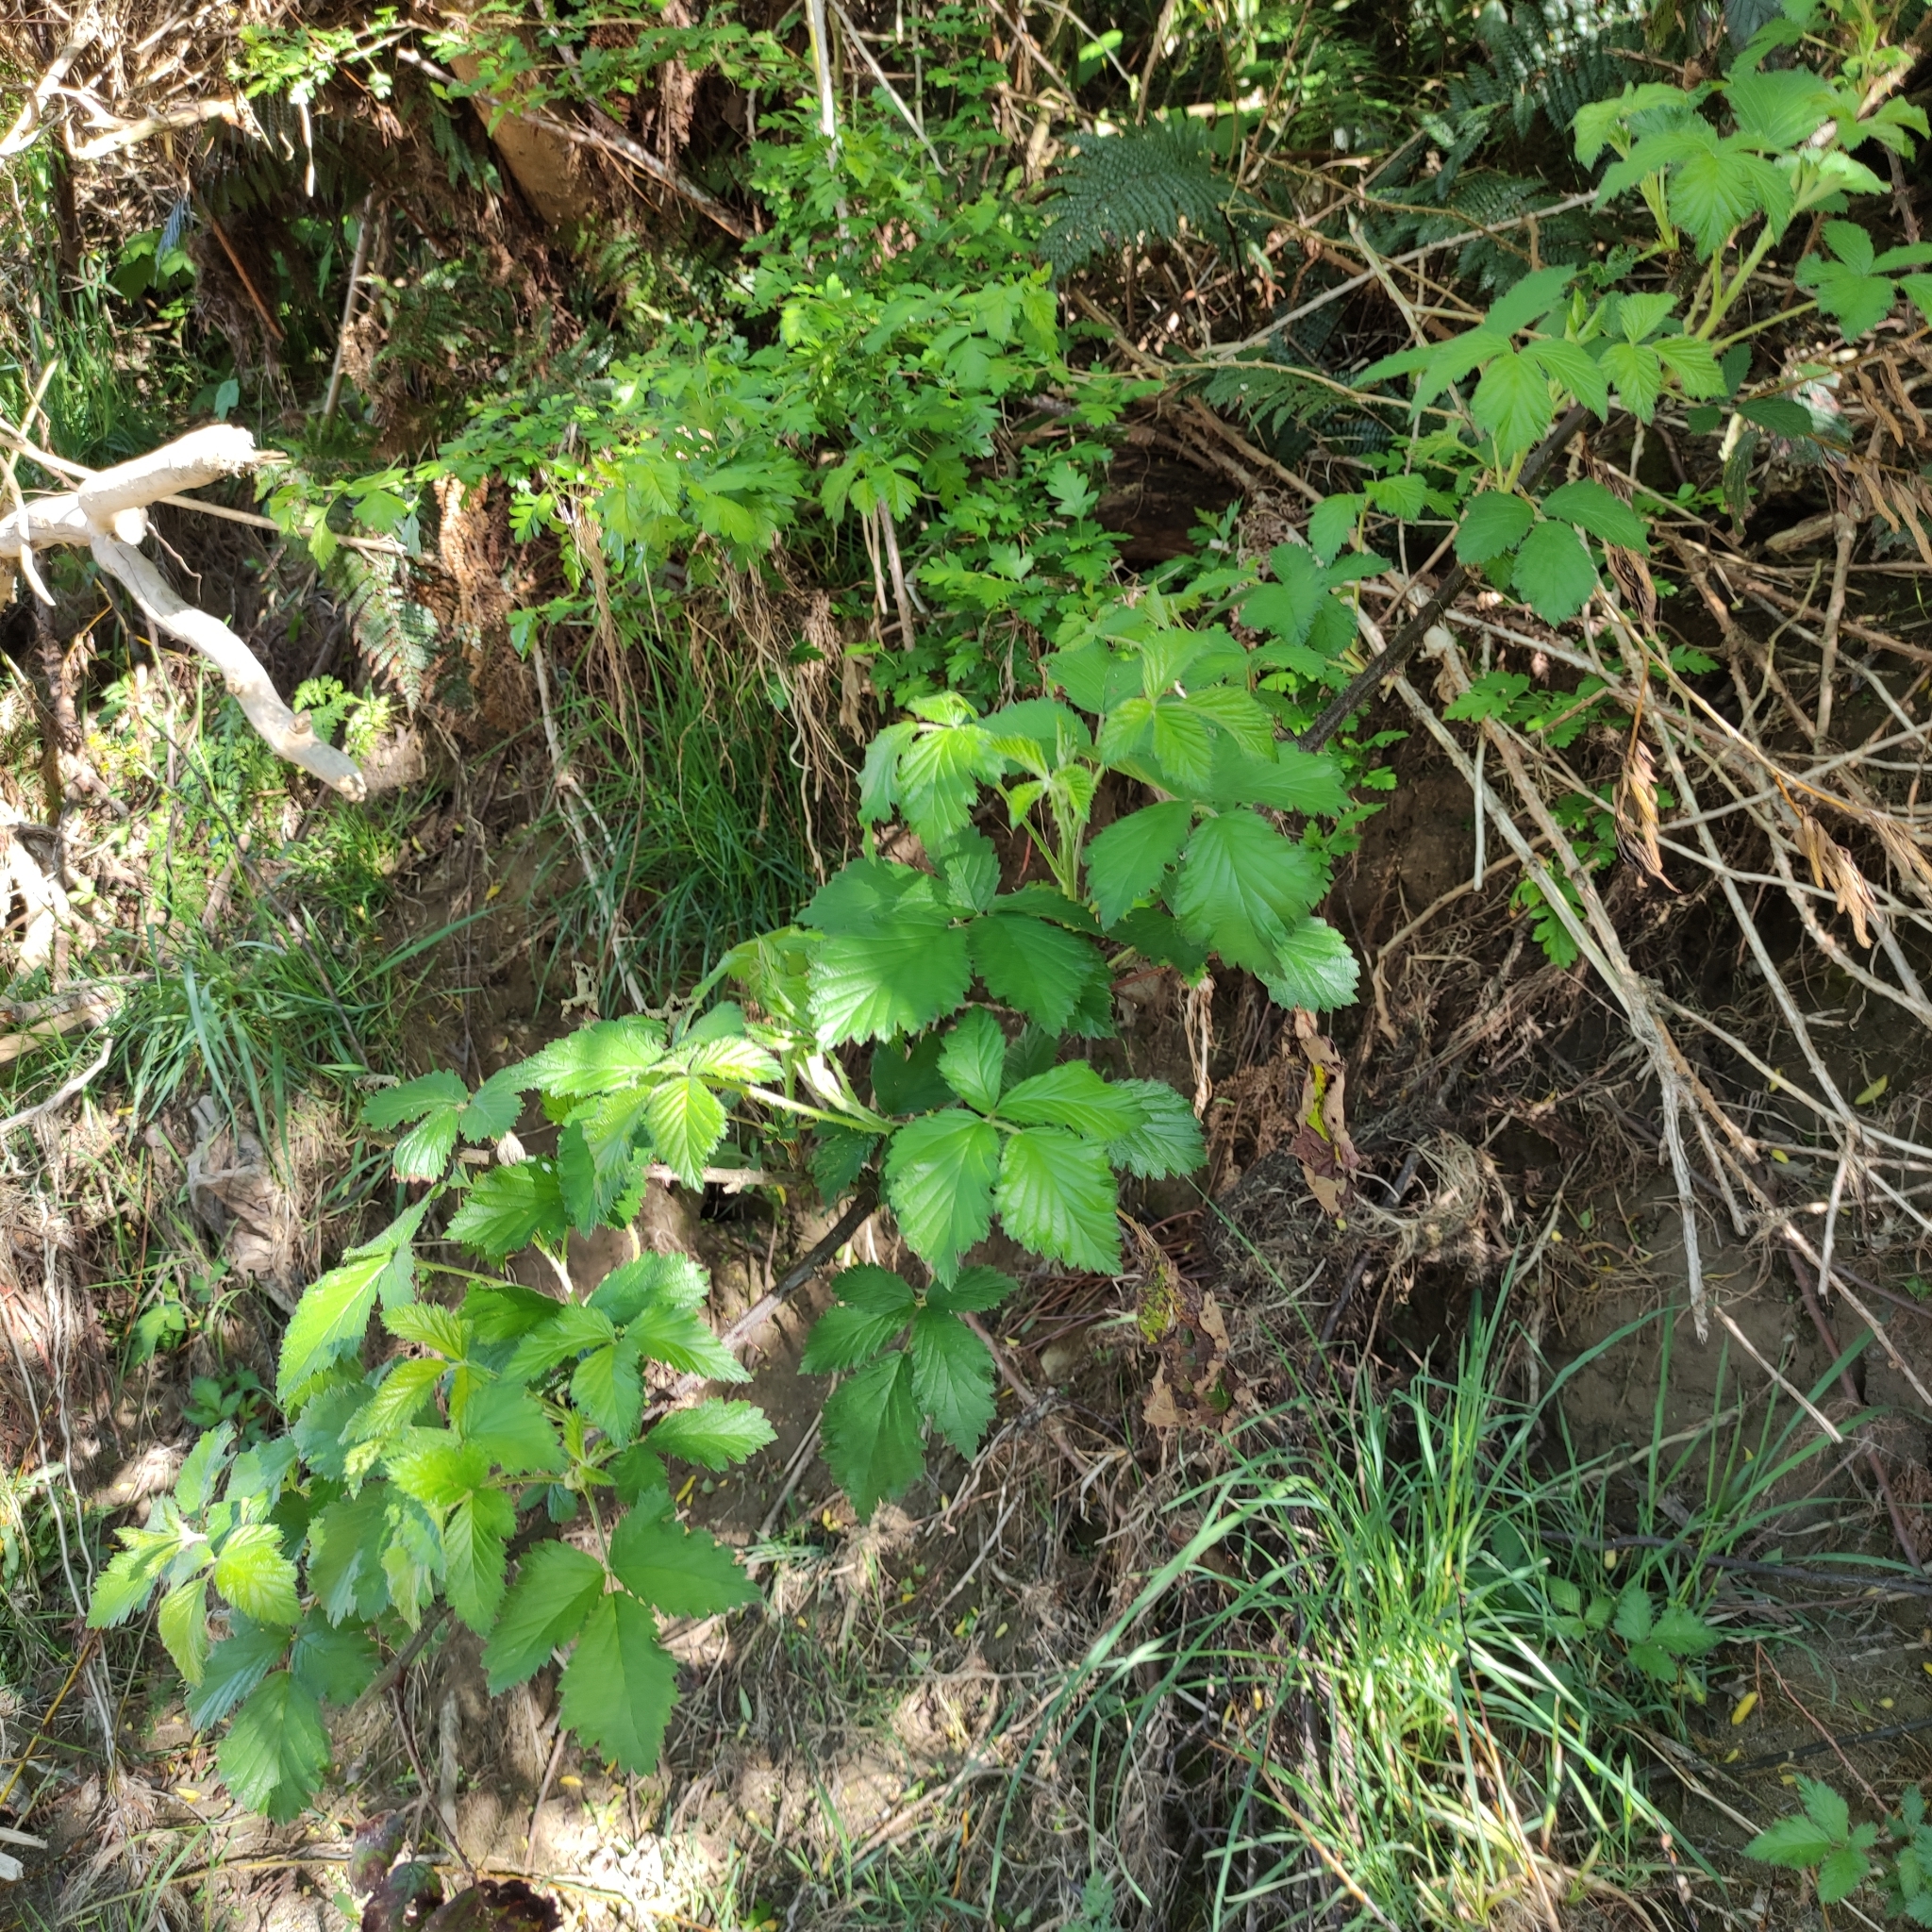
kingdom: Plantae
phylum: Tracheophyta
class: Magnoliopsida
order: Rosales
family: Rosaceae
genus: Rubus
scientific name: Rubus fruticosus
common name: Blackberry, bramble
